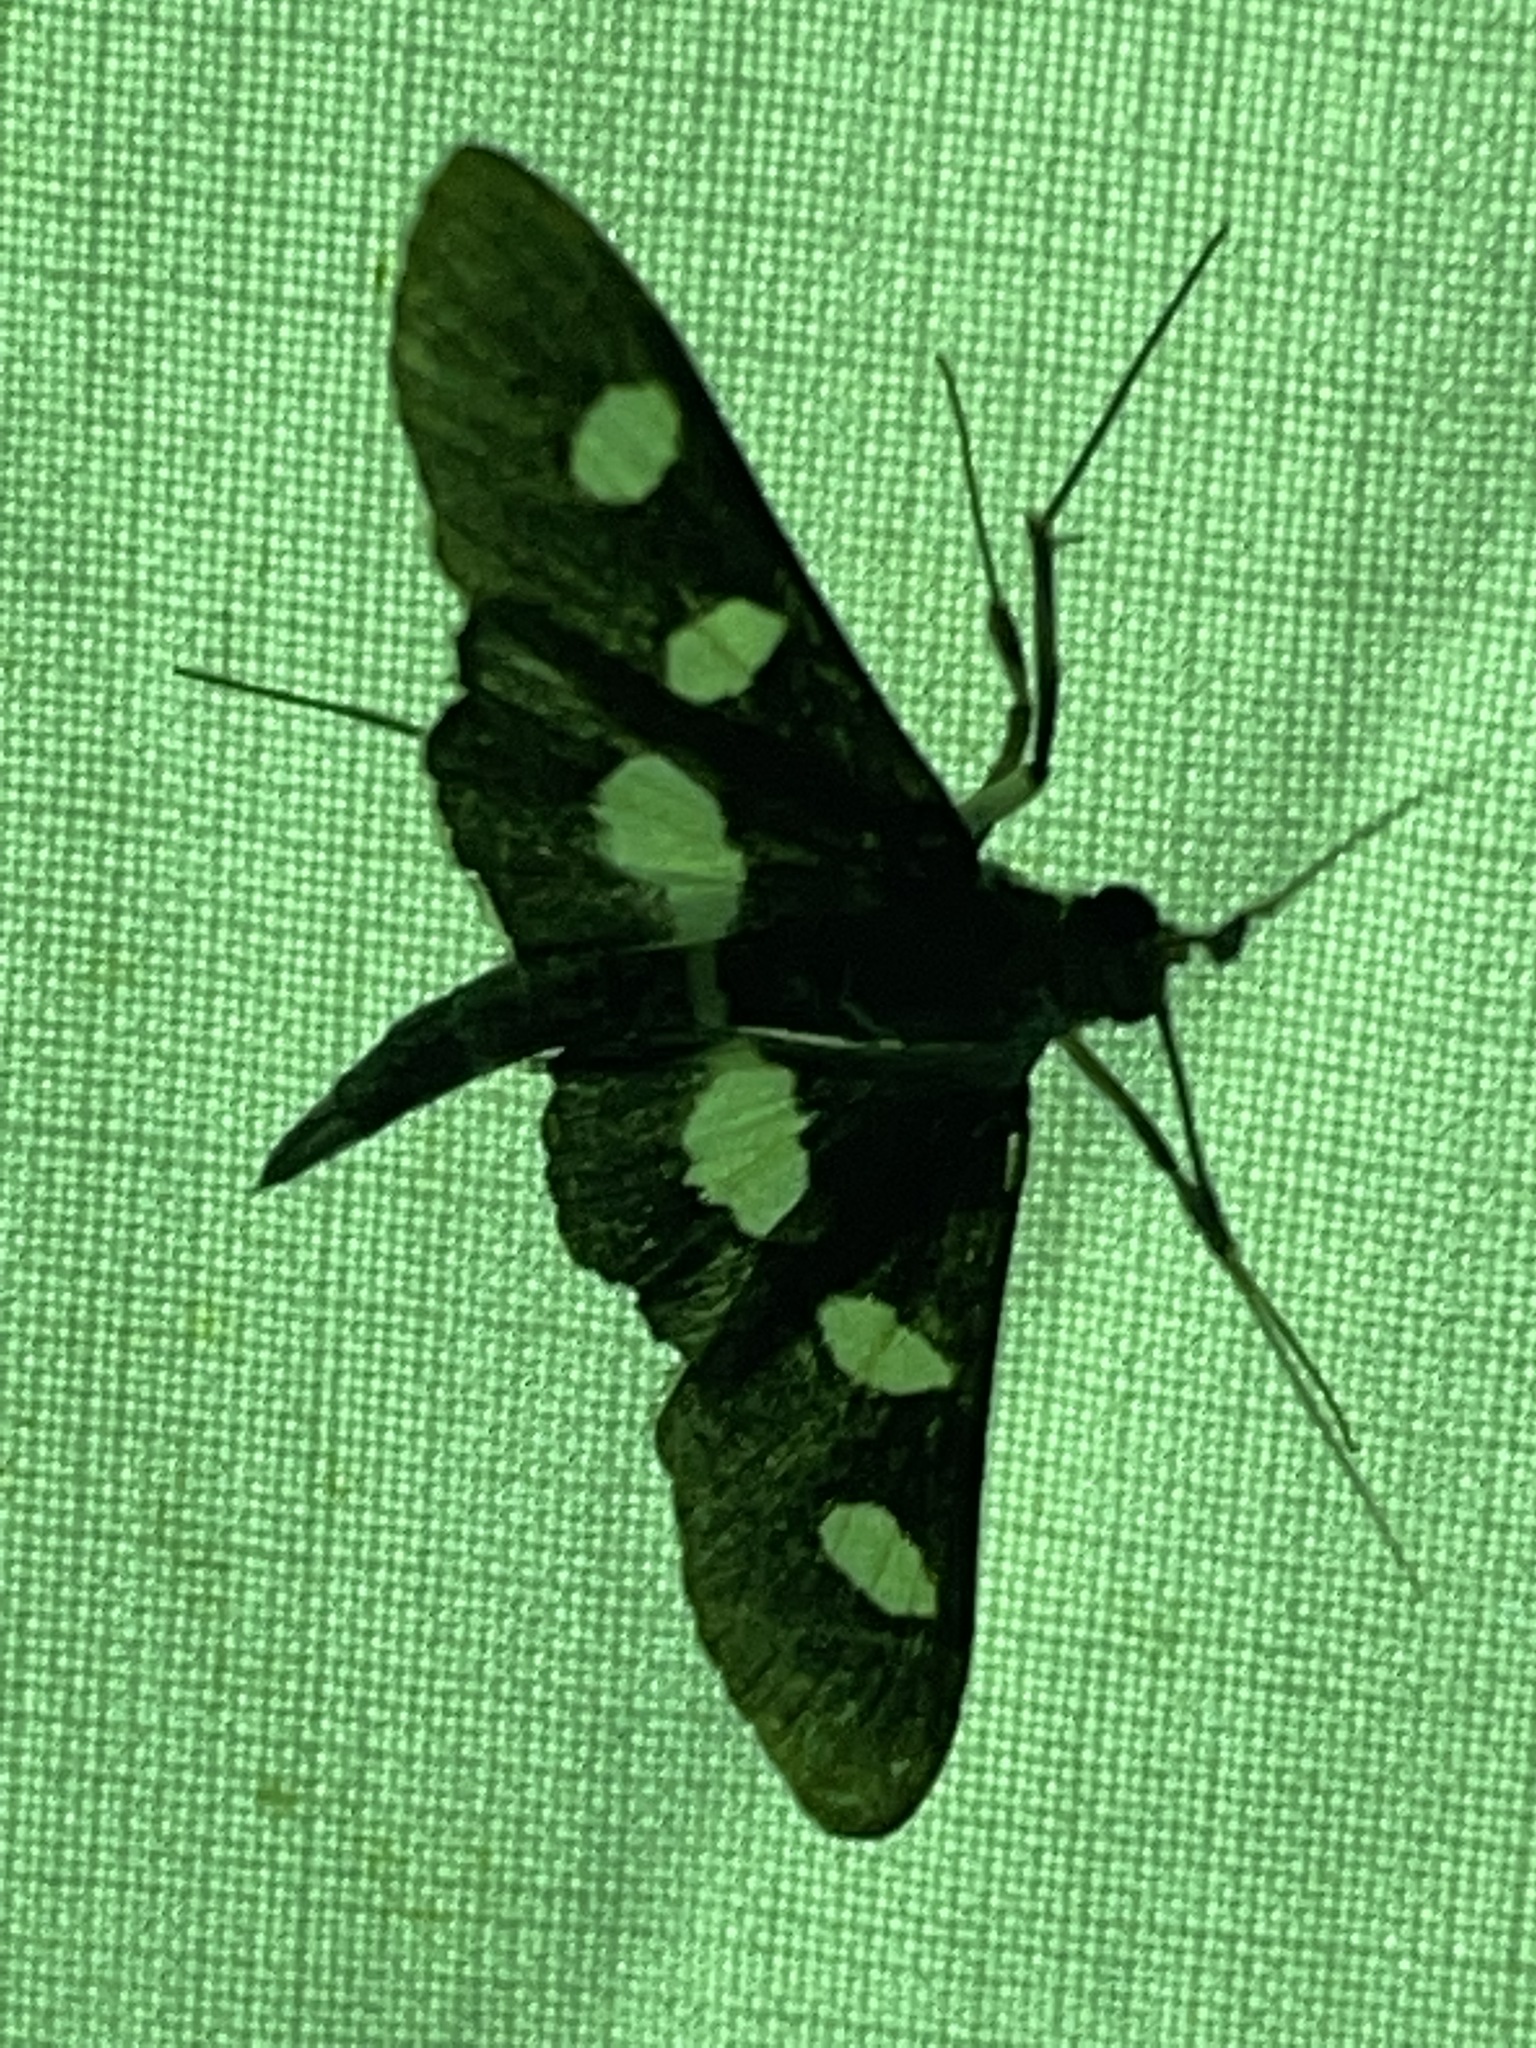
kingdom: Animalia
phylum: Arthropoda
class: Insecta
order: Lepidoptera
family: Crambidae
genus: Desmia
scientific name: Desmia
